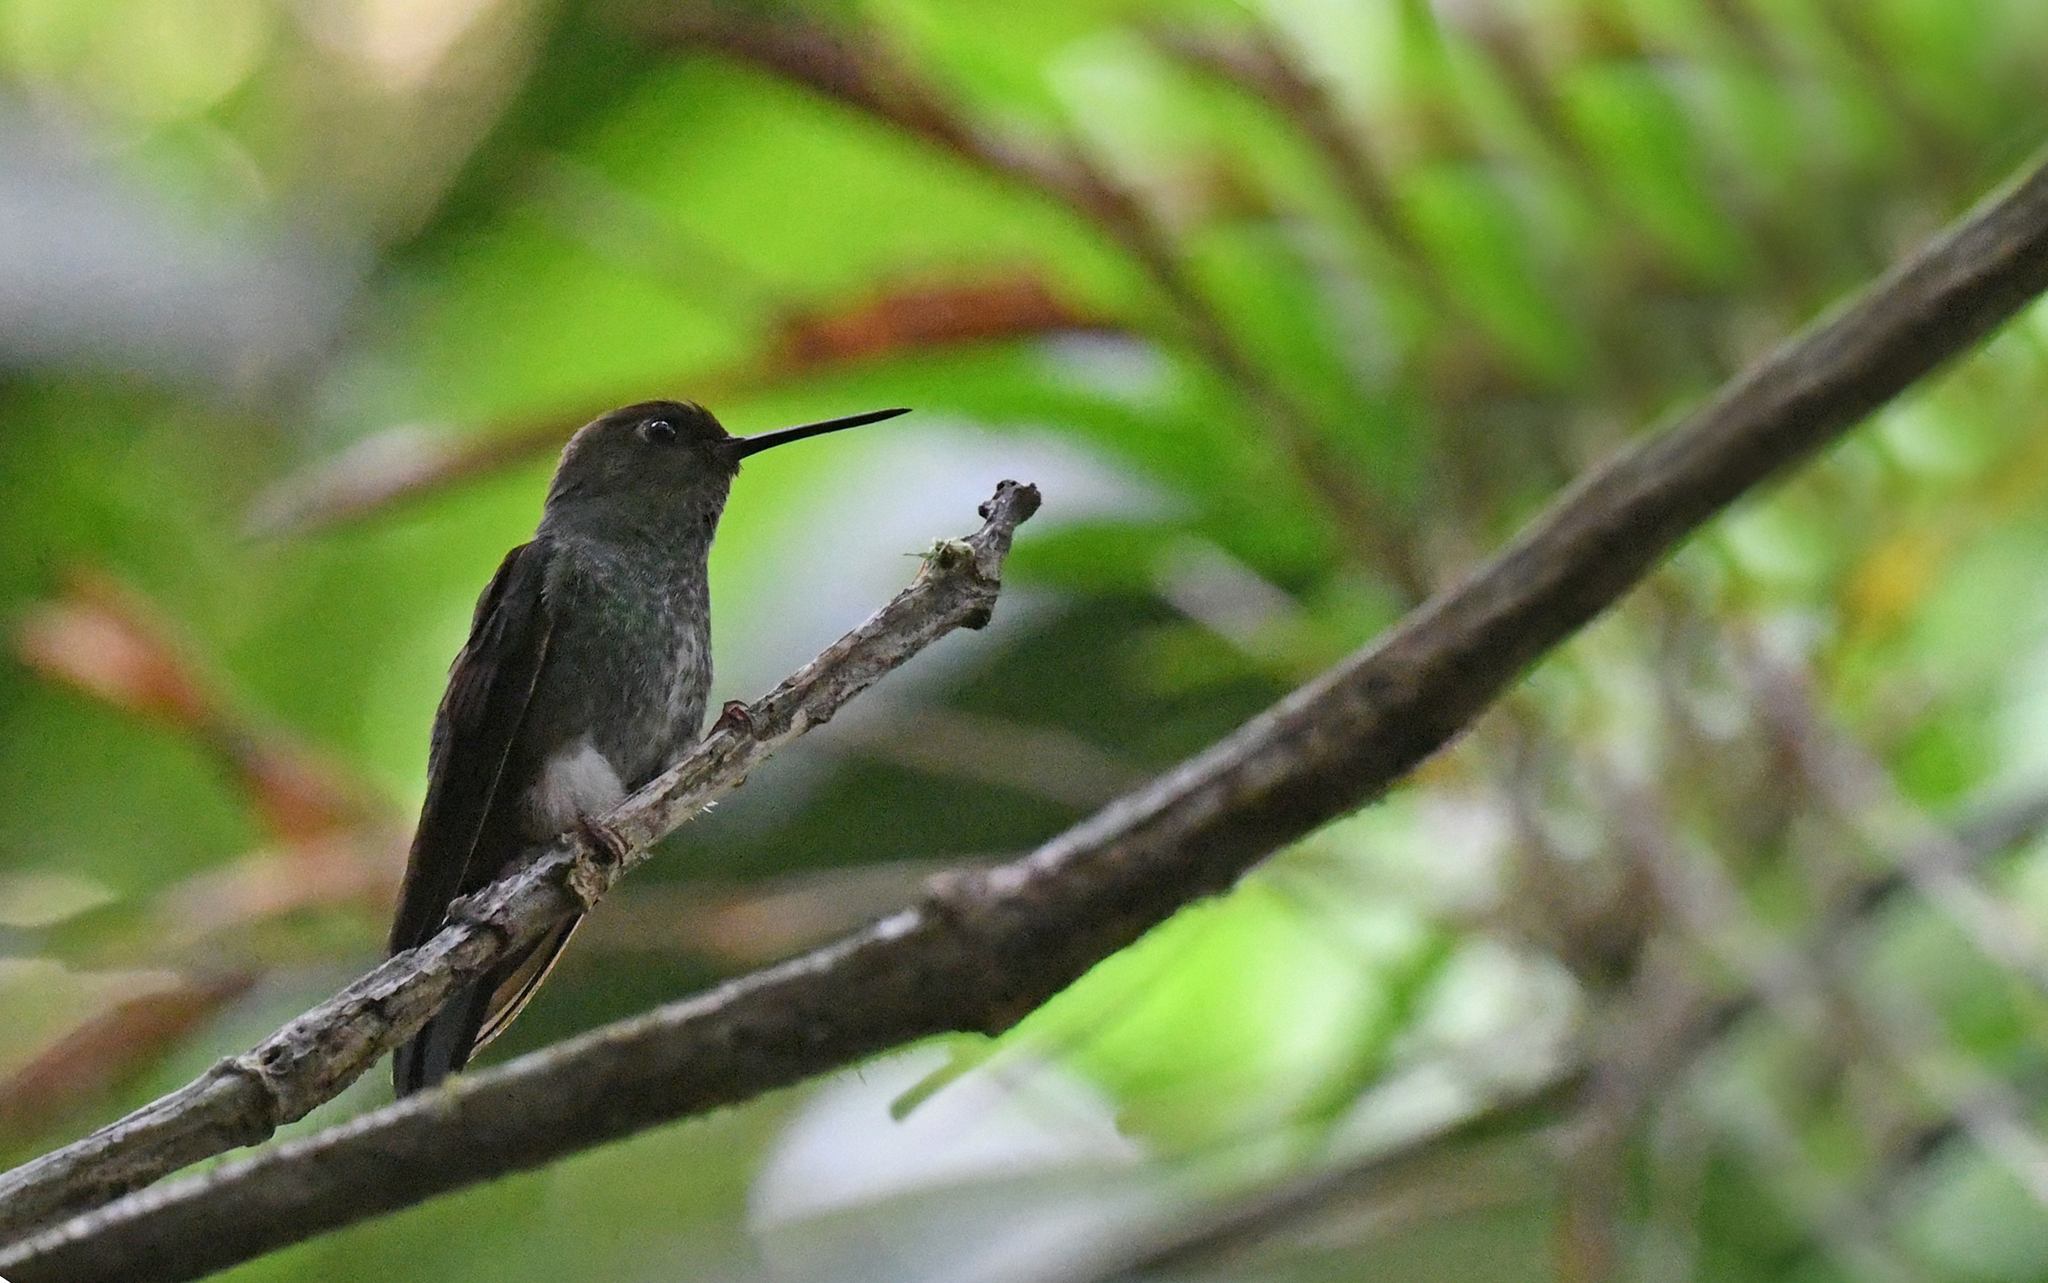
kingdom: Animalia
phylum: Chordata
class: Aves
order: Apodiformes
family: Trochilidae
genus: Haplophaedia
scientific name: Haplophaedia aureliae
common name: Greenish puffleg
